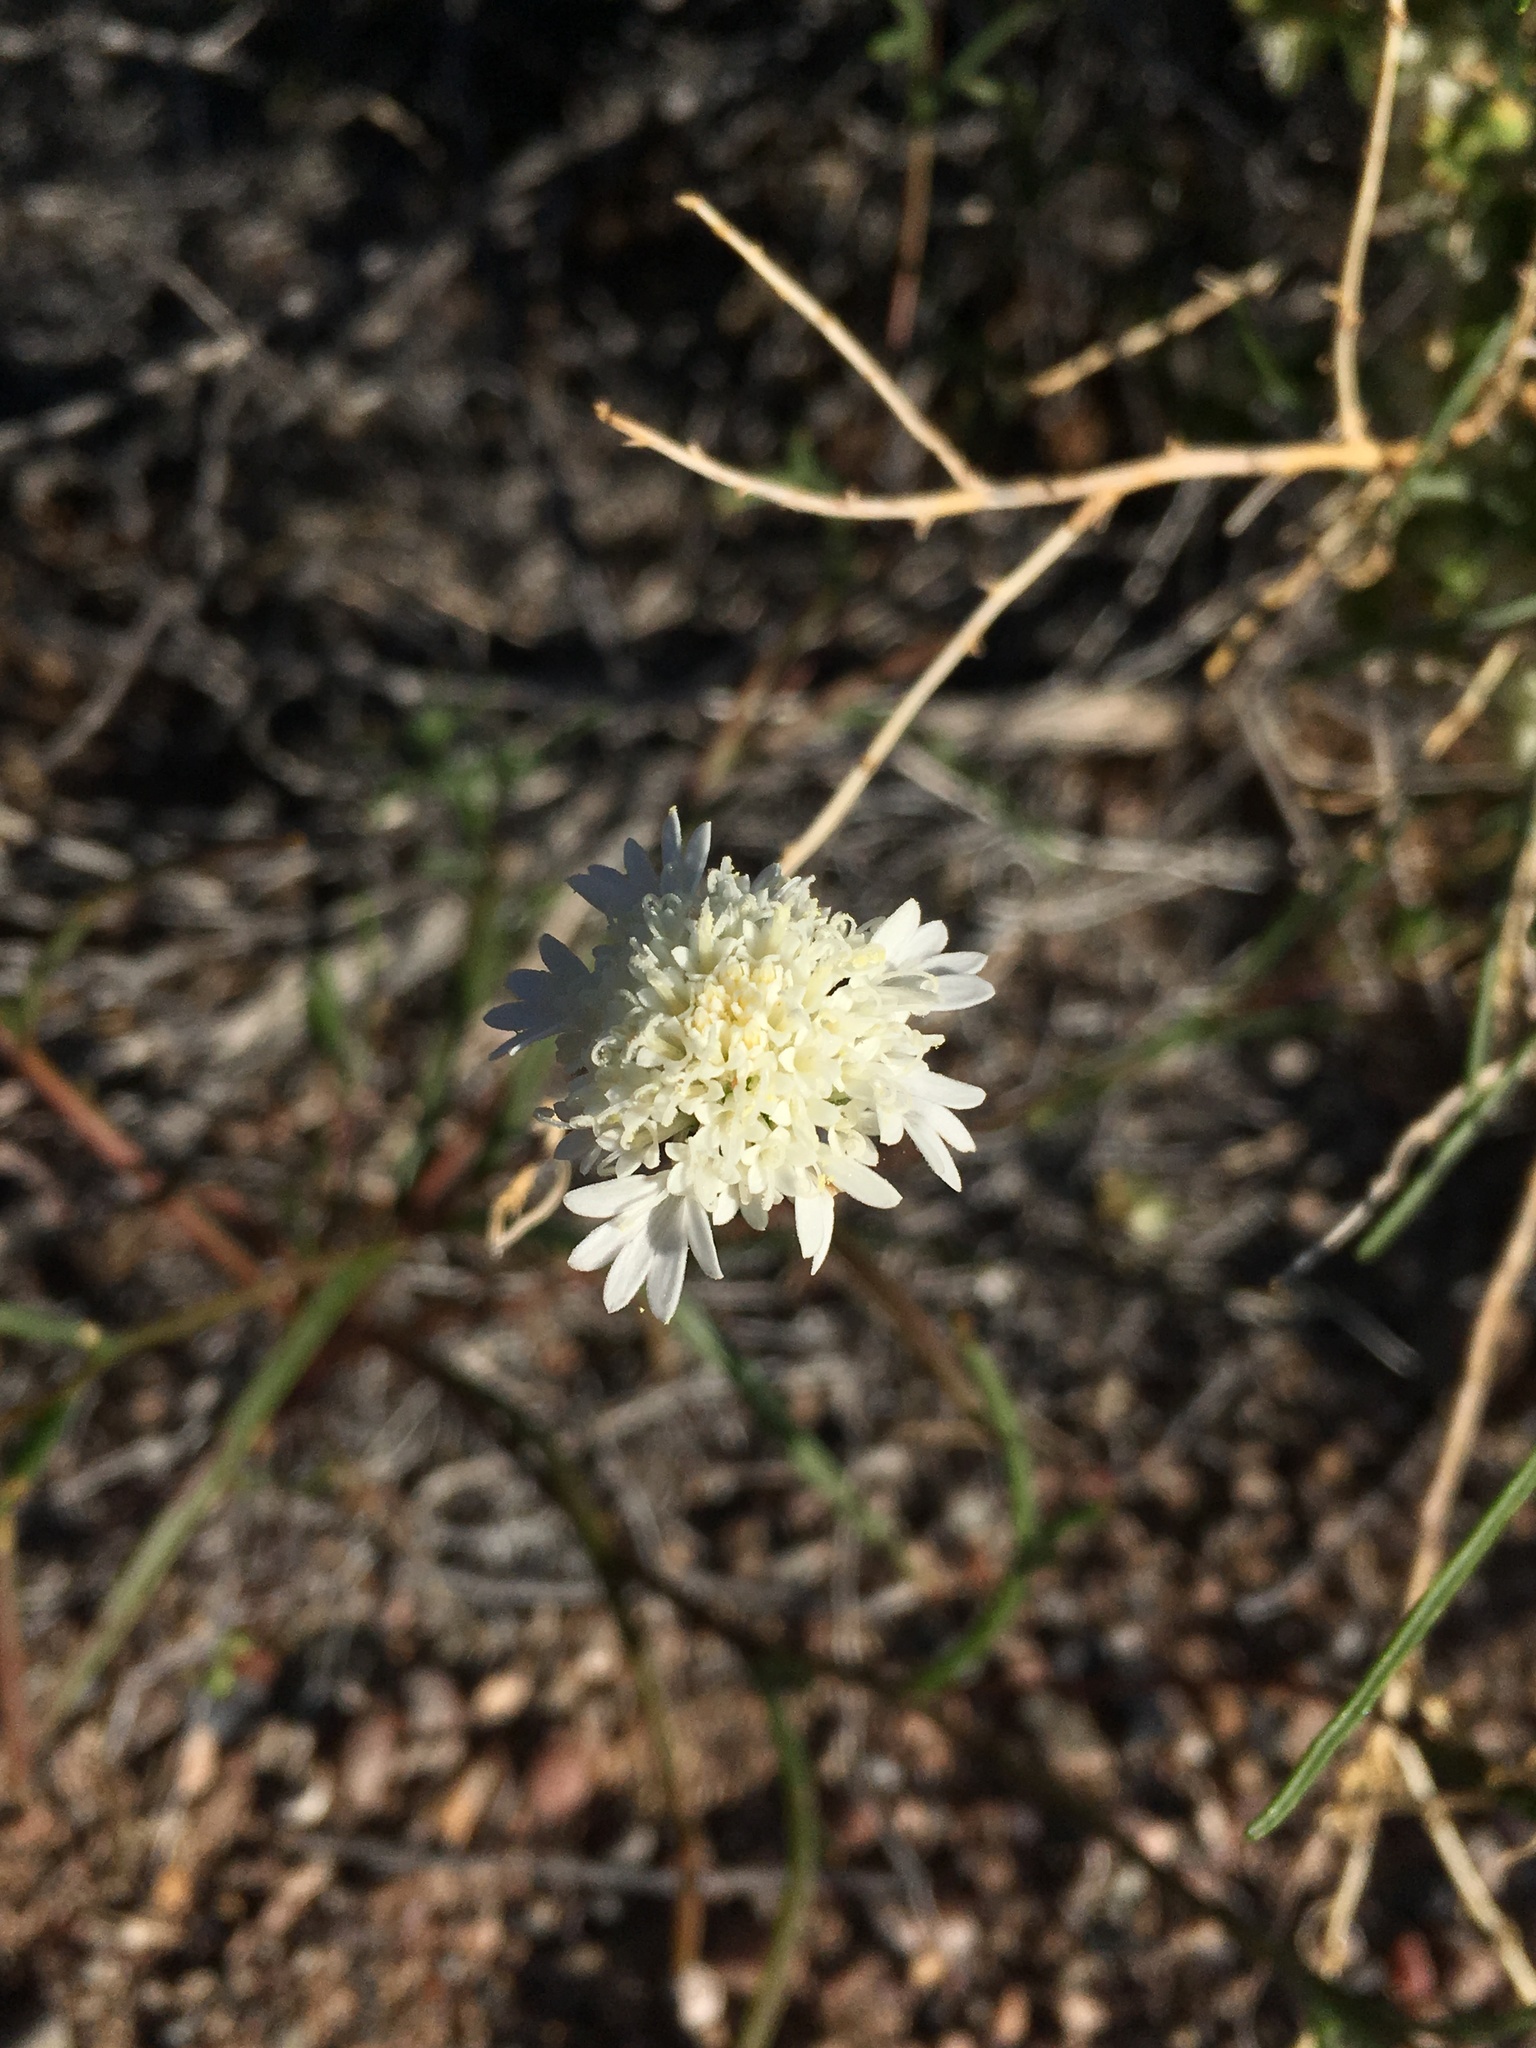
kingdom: Plantae
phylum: Tracheophyta
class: Magnoliopsida
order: Asterales
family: Asteraceae
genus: Chaenactis
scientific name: Chaenactis fremontii
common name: Fremont pincushion
